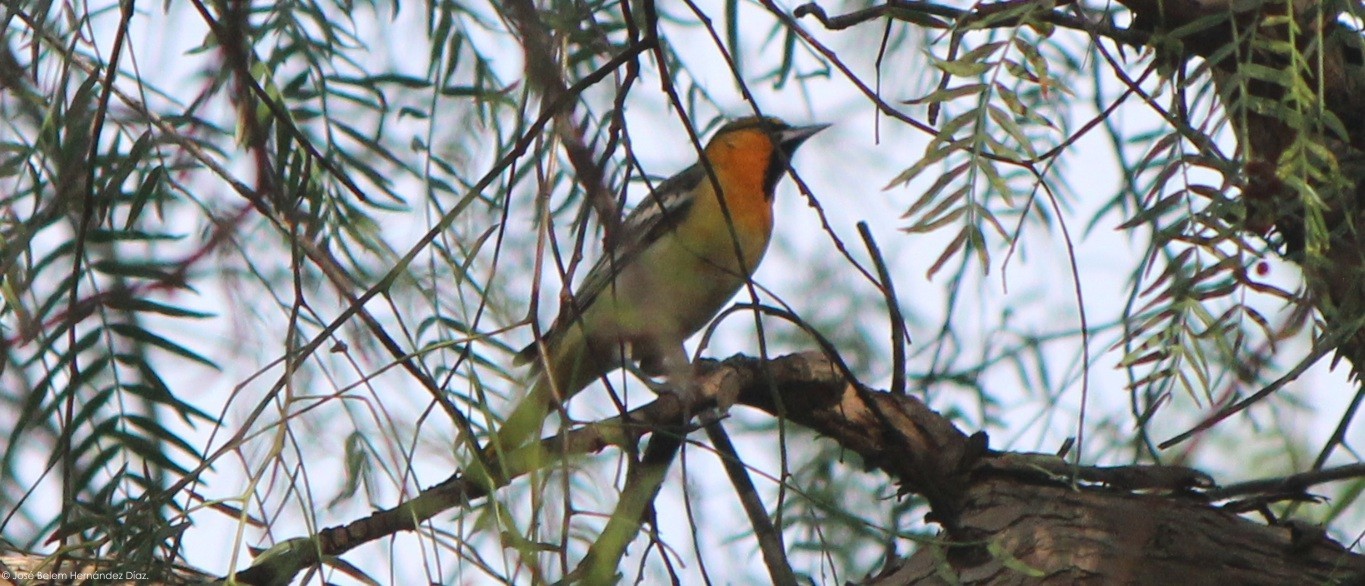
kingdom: Animalia
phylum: Chordata
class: Aves
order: Passeriformes
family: Icteridae
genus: Icterus
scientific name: Icterus bullockii
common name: Bullock's oriole
